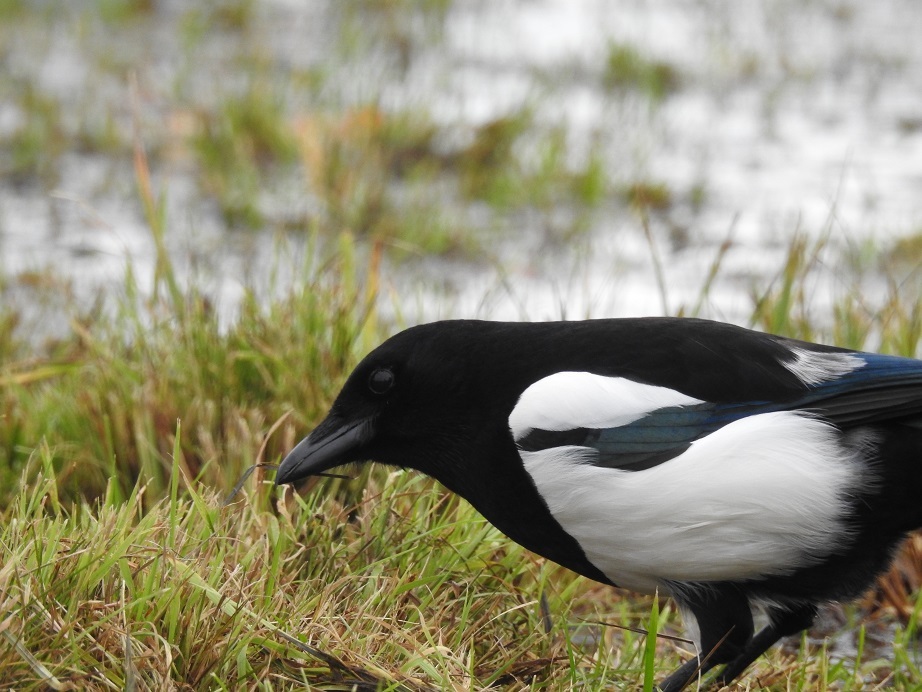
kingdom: Animalia
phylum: Chordata
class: Aves
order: Passeriformes
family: Corvidae
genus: Pica
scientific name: Pica pica
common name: Eurasian magpie
